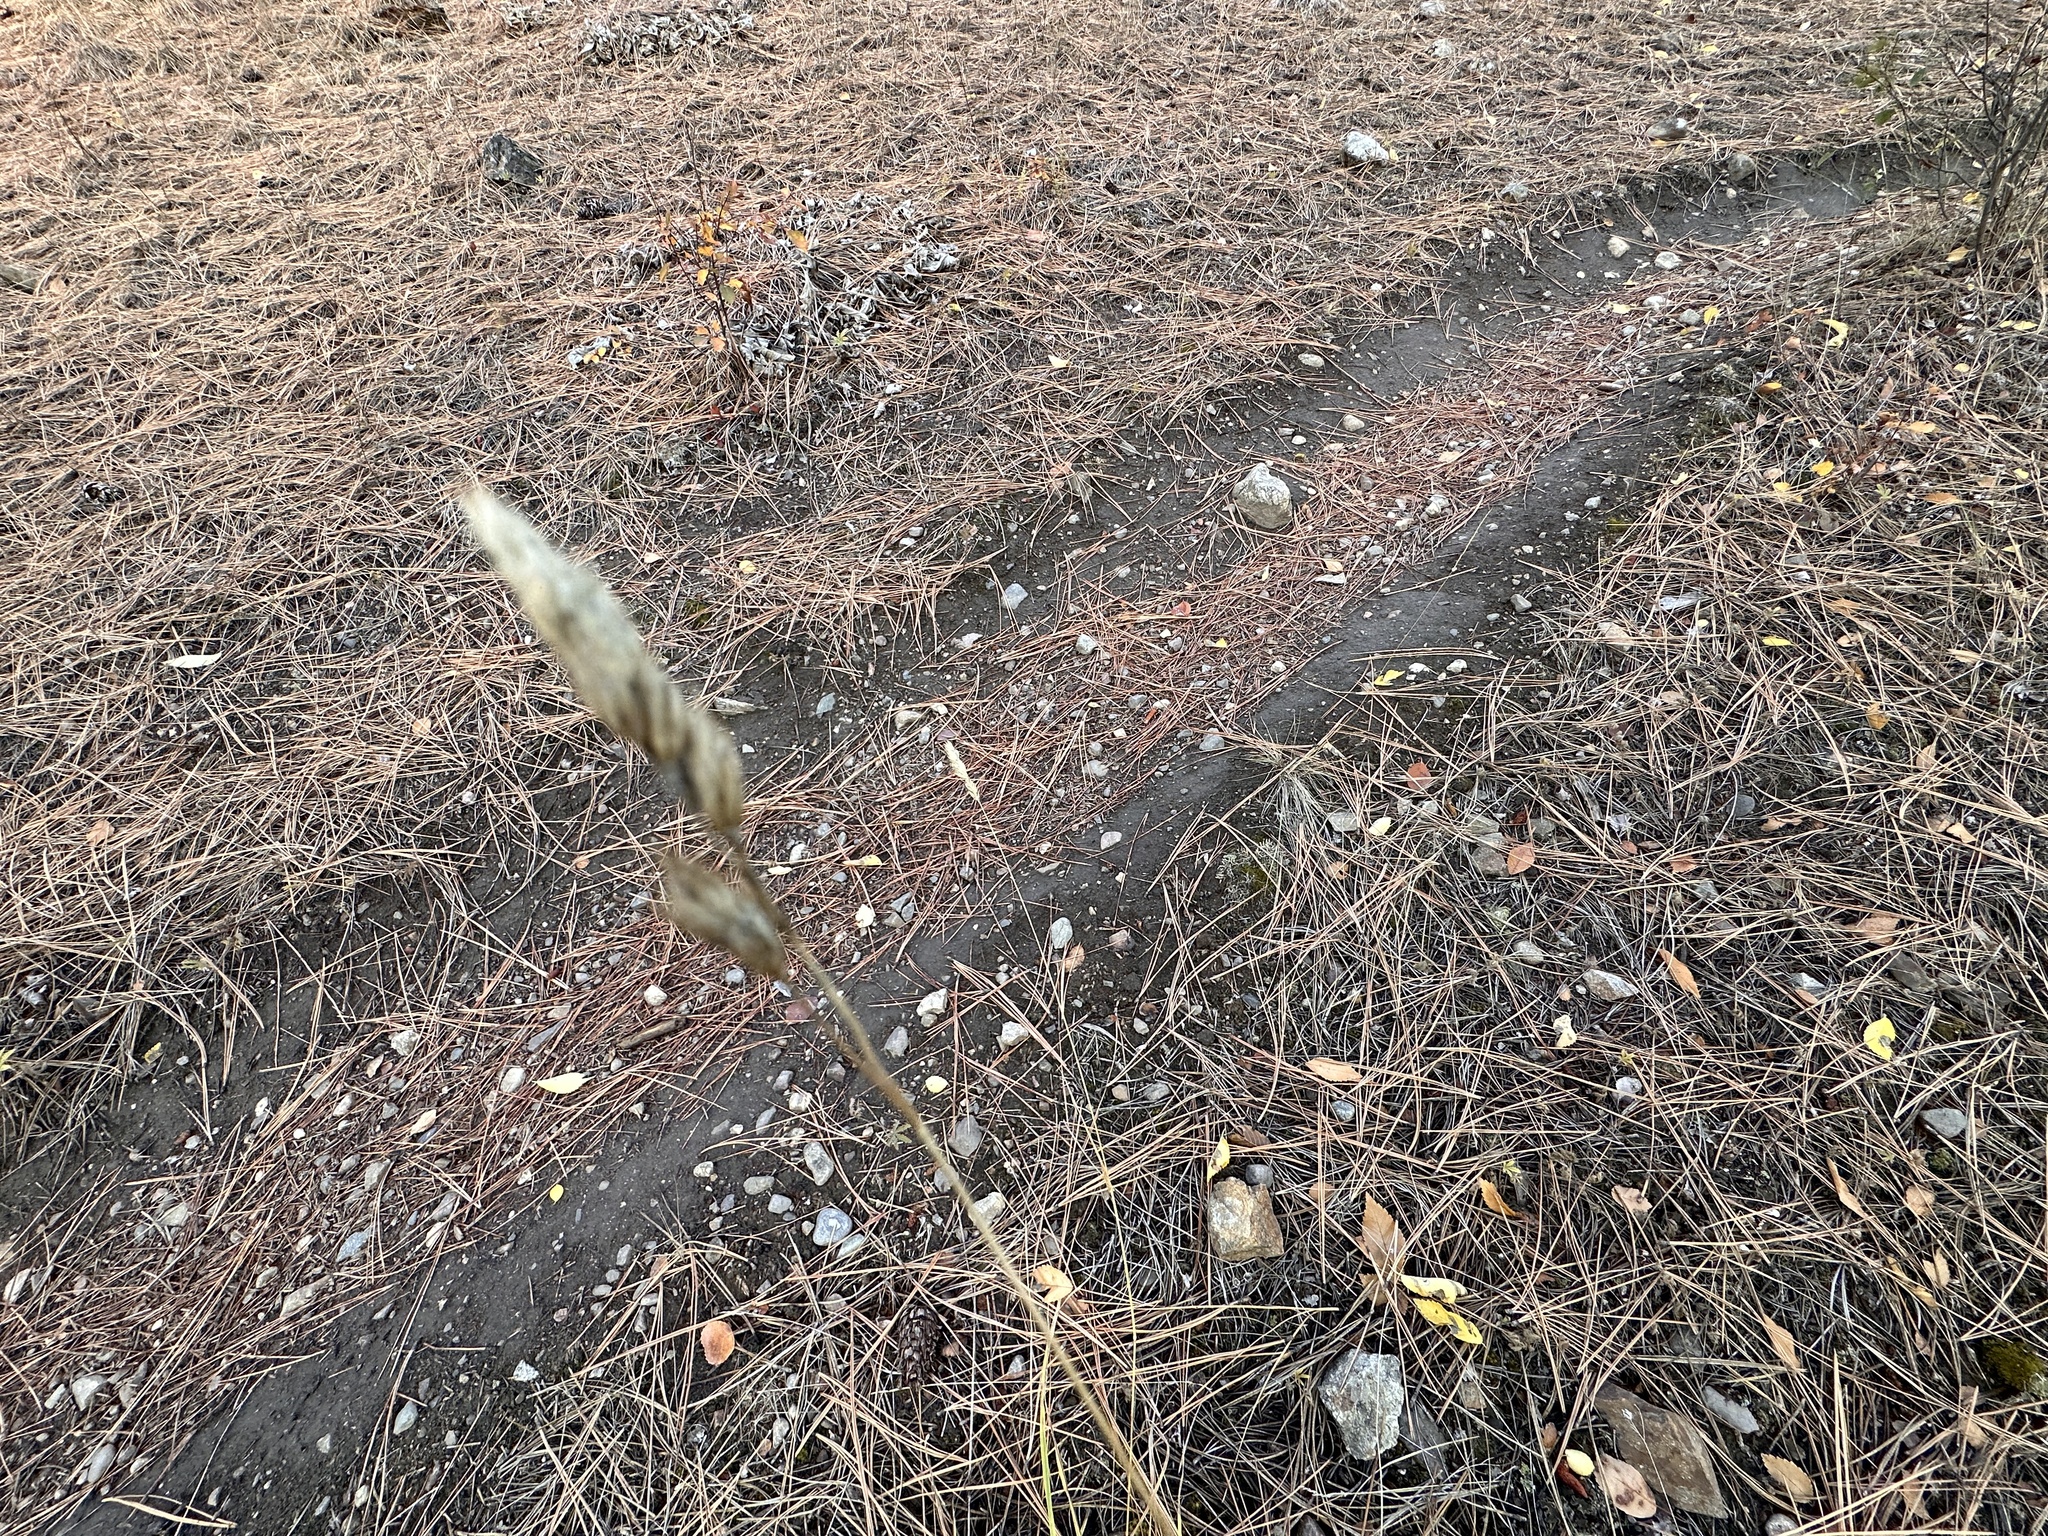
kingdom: Plantae
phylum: Tracheophyta
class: Liliopsida
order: Poales
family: Poaceae
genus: Dactylis
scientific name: Dactylis glomerata
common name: Orchardgrass
